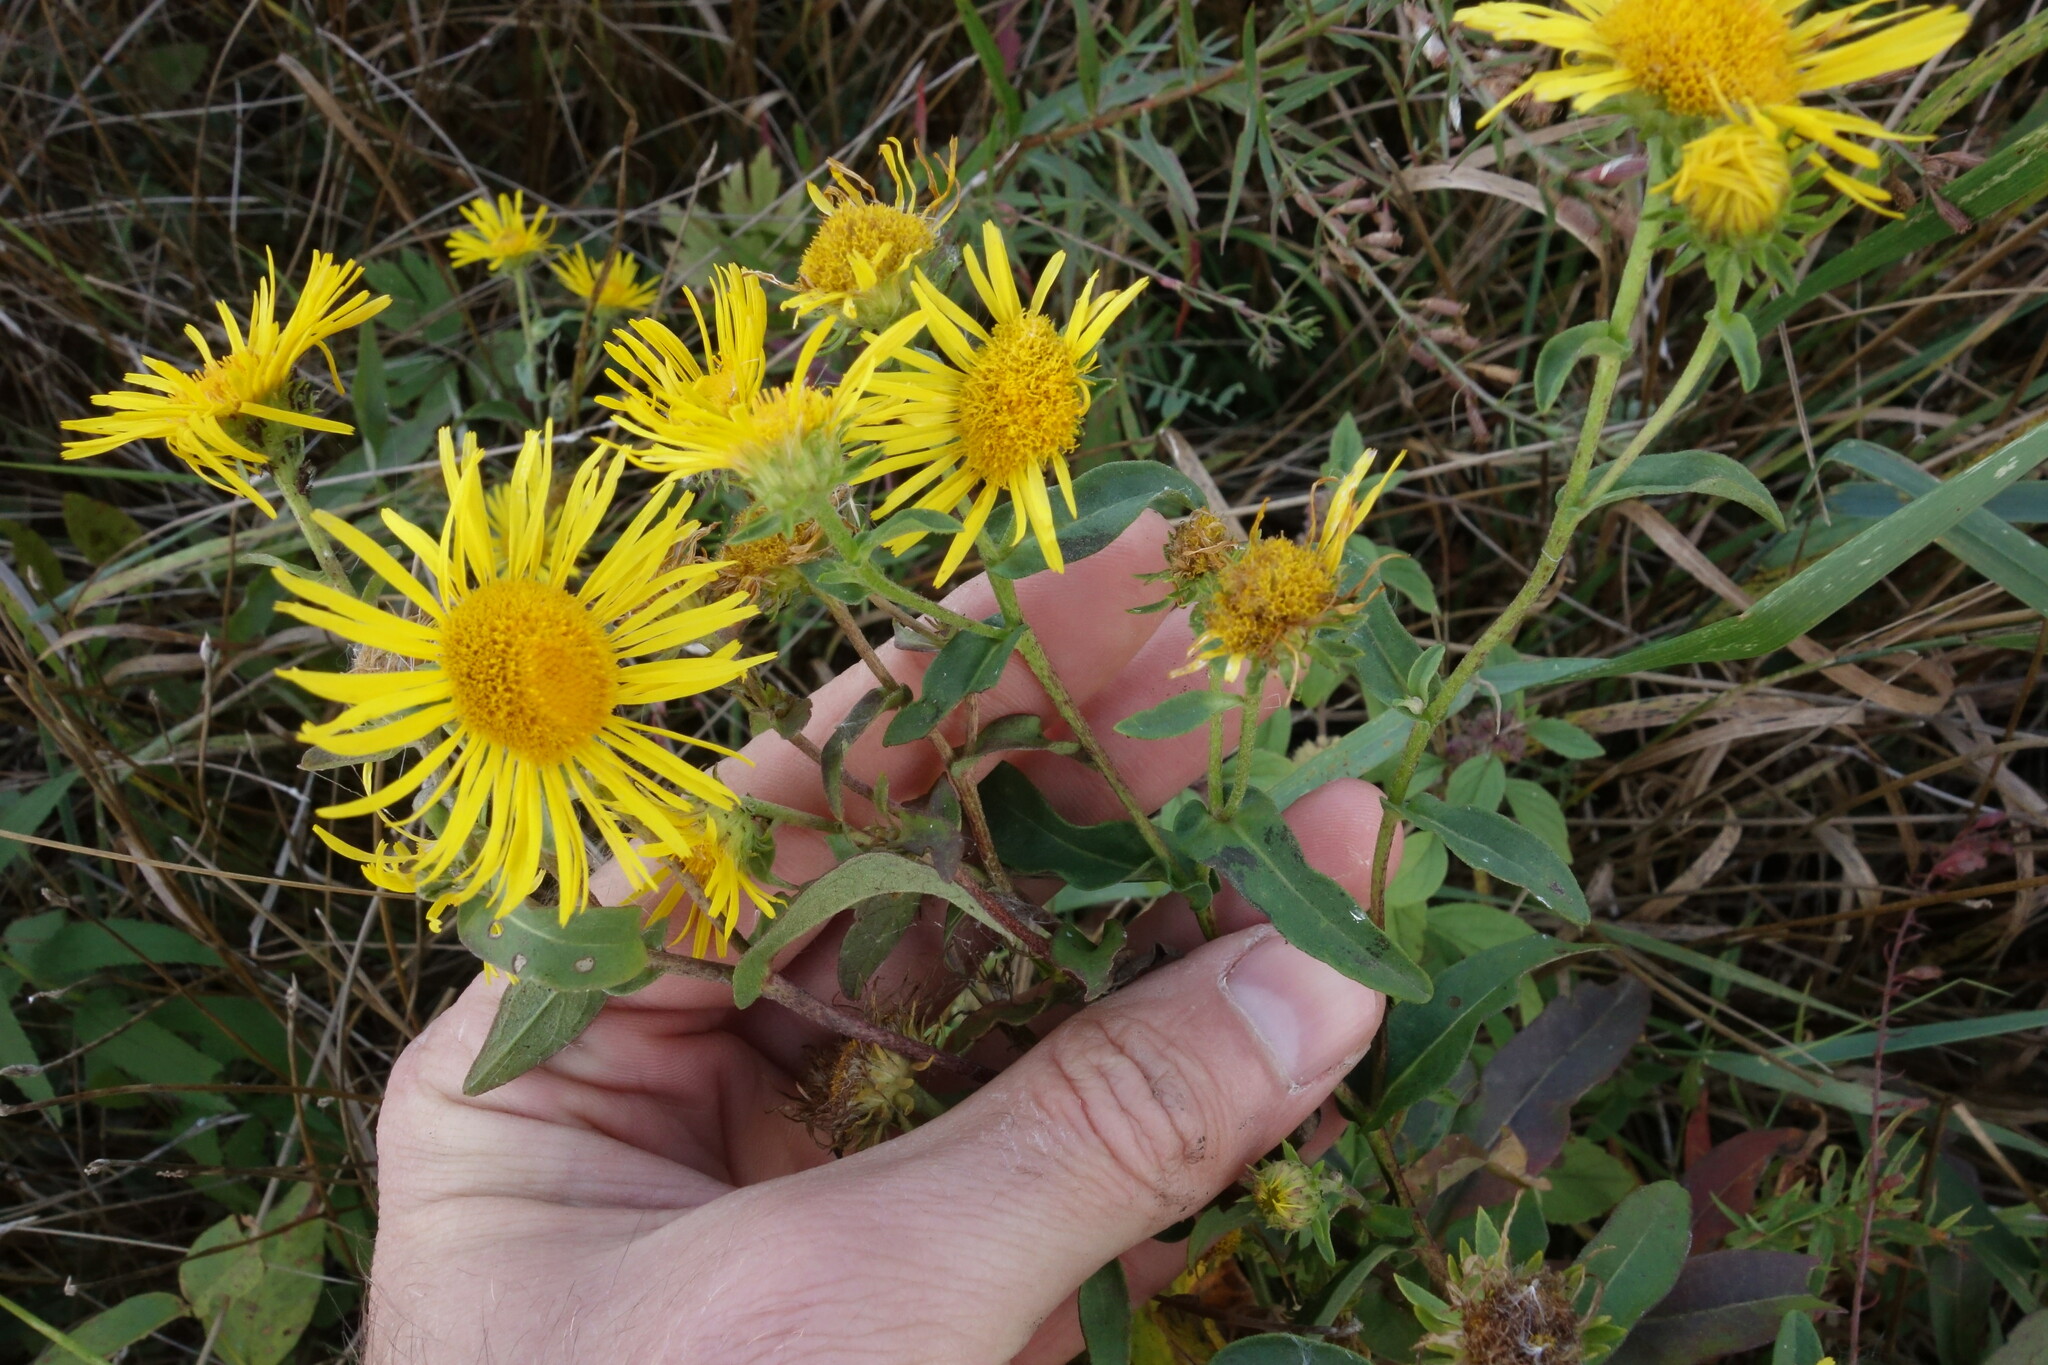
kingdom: Plantae
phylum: Tracheophyta
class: Magnoliopsida
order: Asterales
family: Asteraceae
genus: Pentanema
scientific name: Pentanema britannicum
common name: British elecampane
